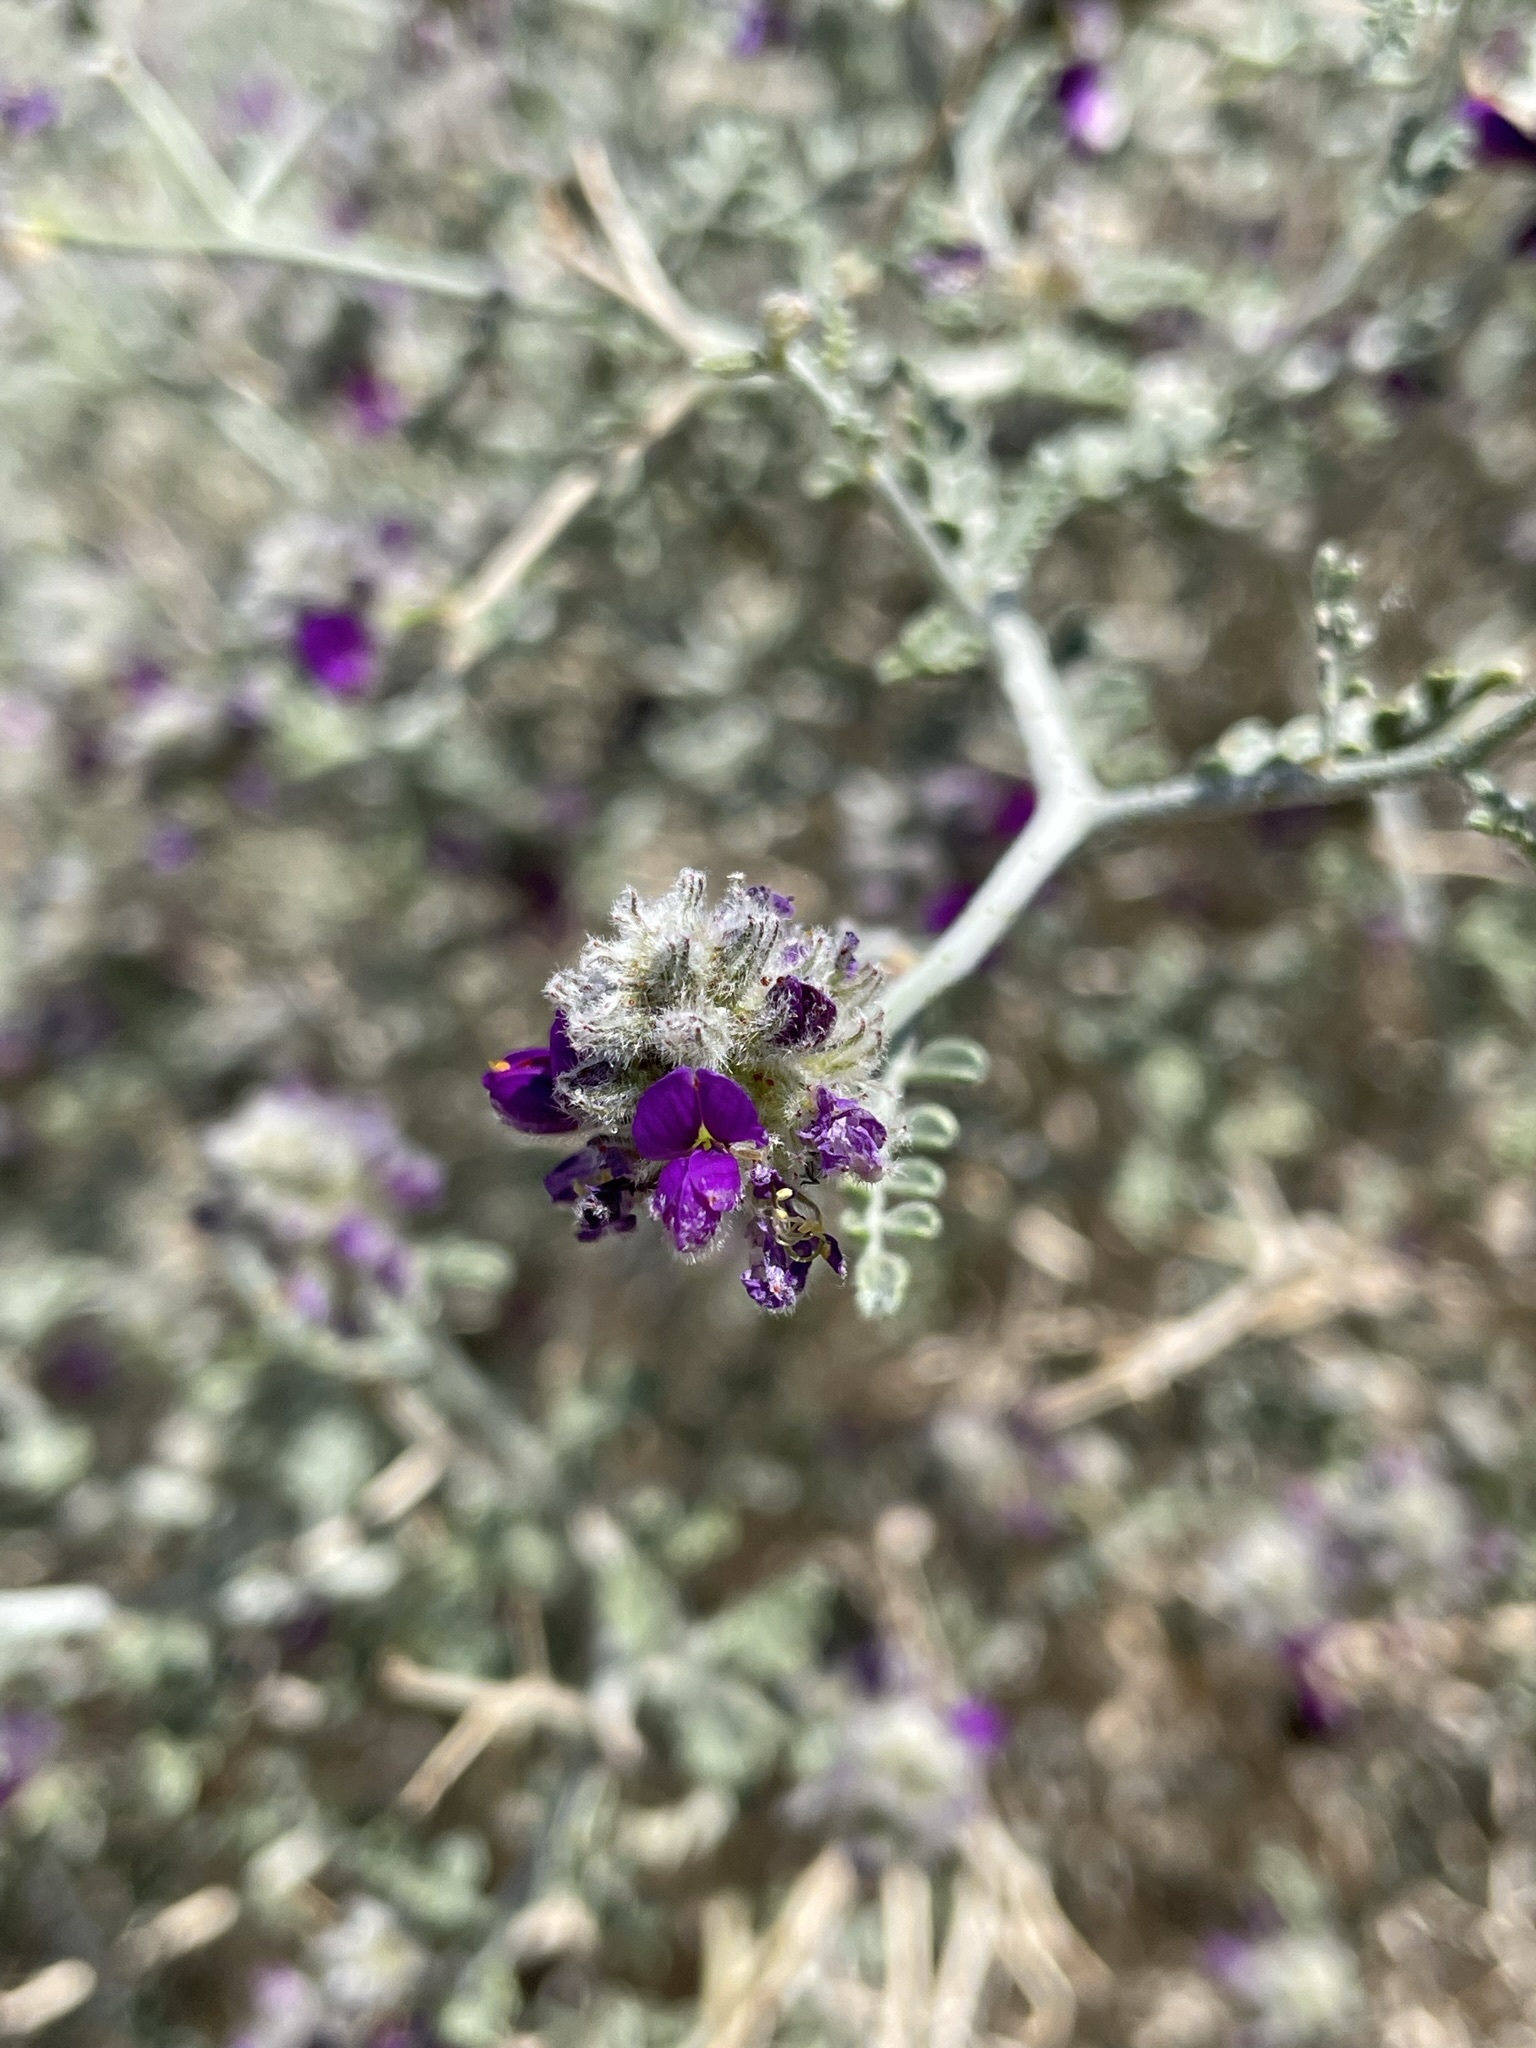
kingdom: Plantae
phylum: Tracheophyta
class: Magnoliopsida
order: Fabales
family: Fabaceae
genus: Psorothamnus
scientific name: Psorothamnus polydenius
